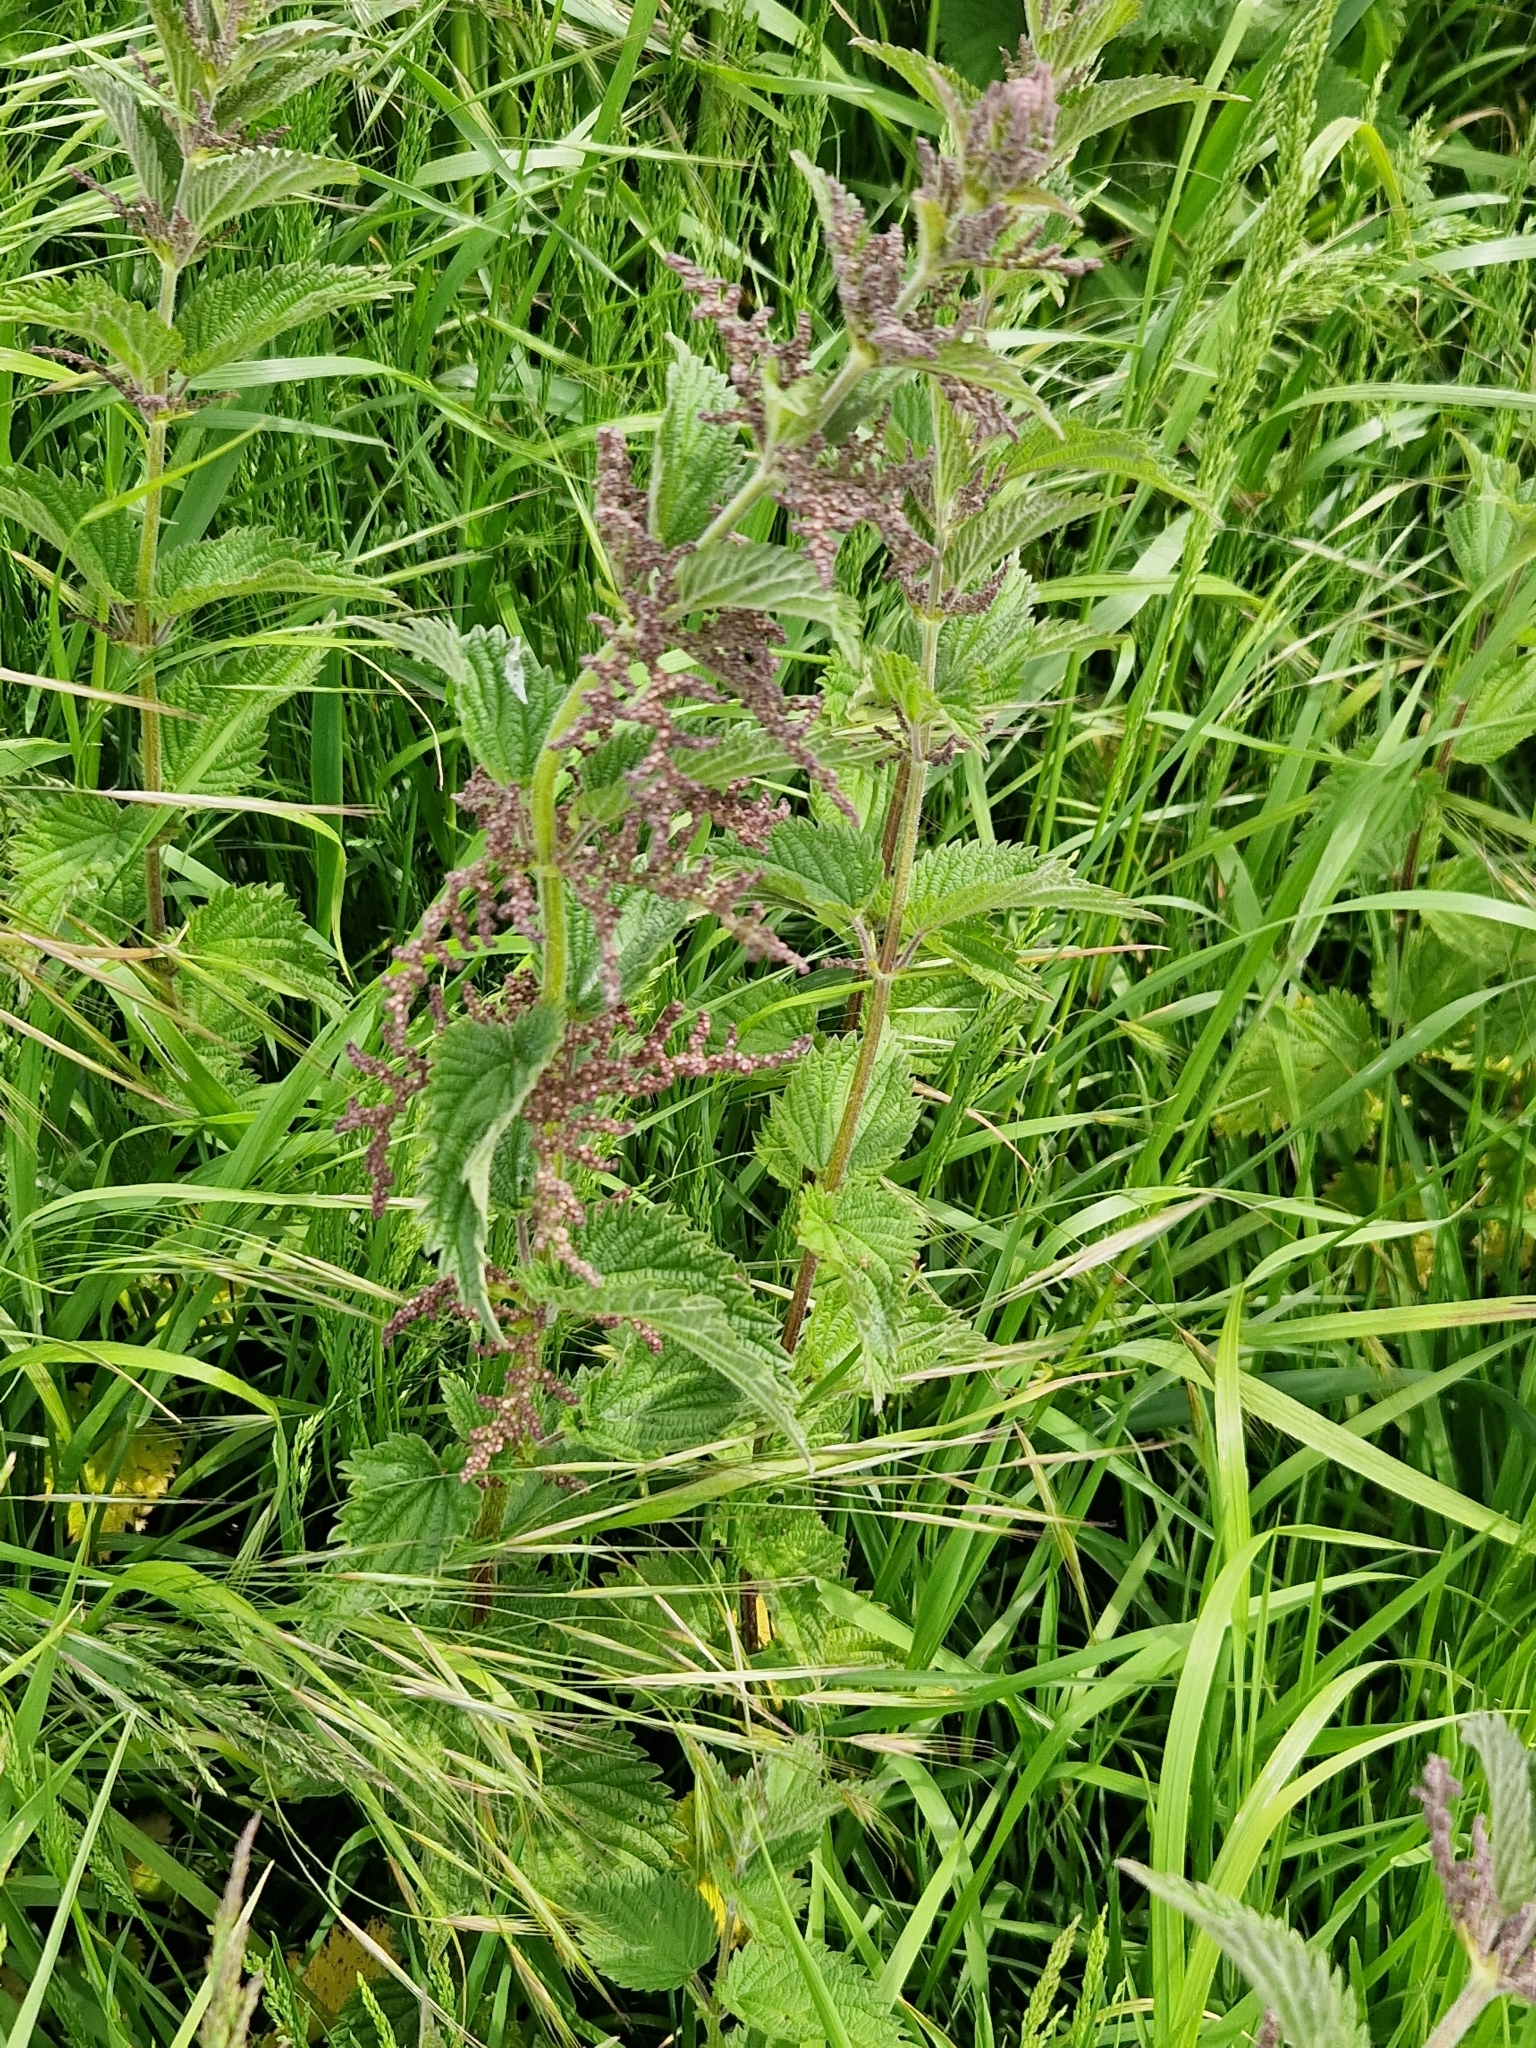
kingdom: Plantae
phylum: Tracheophyta
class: Magnoliopsida
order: Rosales
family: Urticaceae
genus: Urtica
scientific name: Urtica dioica
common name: Common nettle
